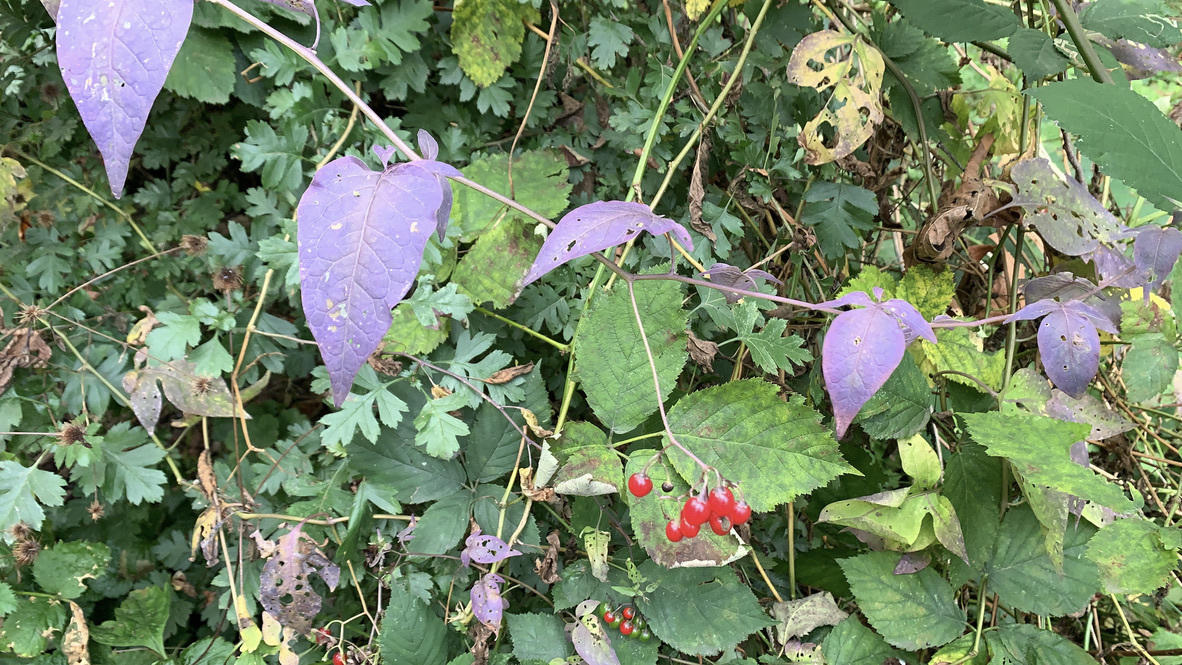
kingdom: Plantae
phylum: Tracheophyta
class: Magnoliopsida
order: Solanales
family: Solanaceae
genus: Solanum
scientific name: Solanum dulcamara
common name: Climbing nightshade
